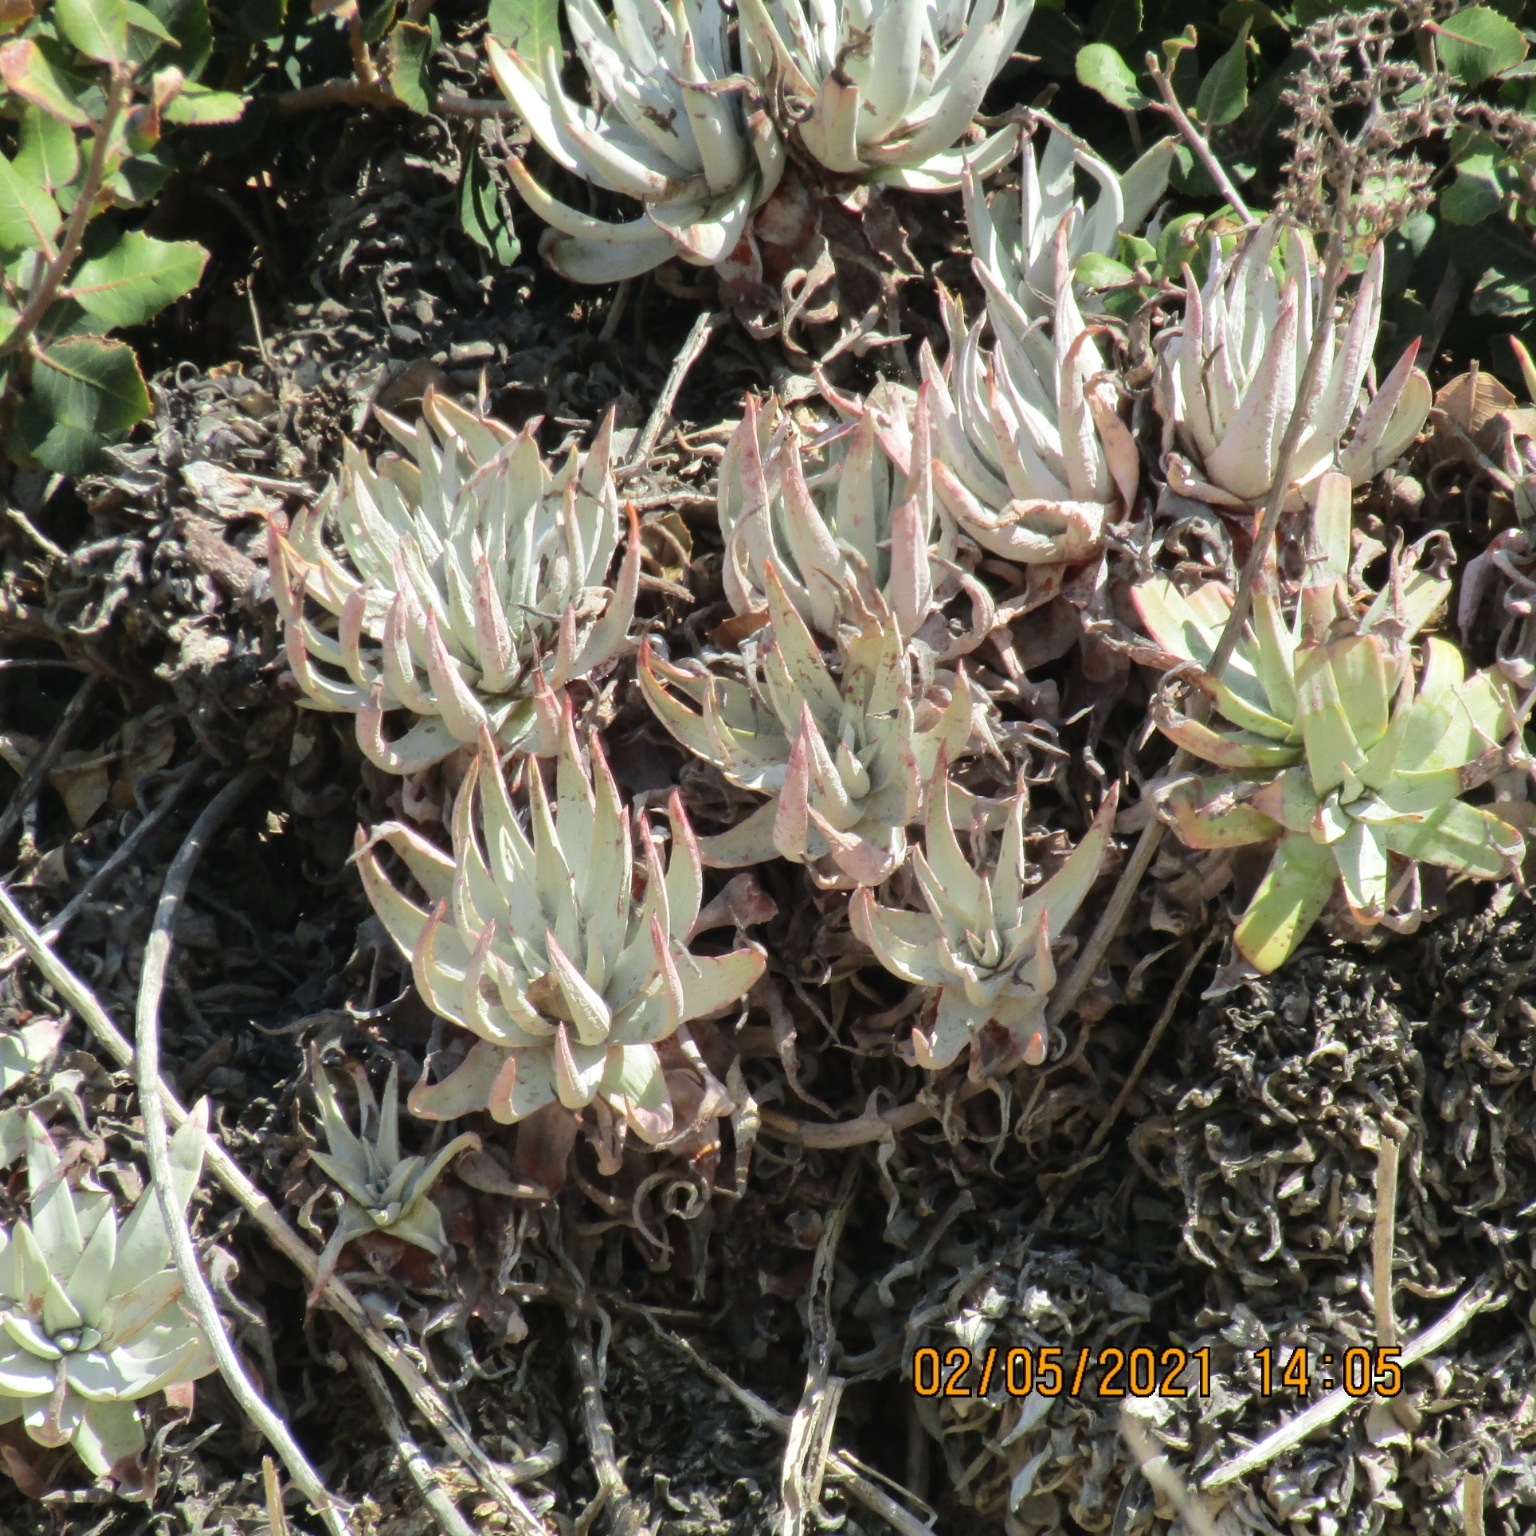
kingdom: Plantae
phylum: Tracheophyta
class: Magnoliopsida
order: Saxifragales
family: Crassulaceae
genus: Dudleya
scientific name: Dudleya virens
